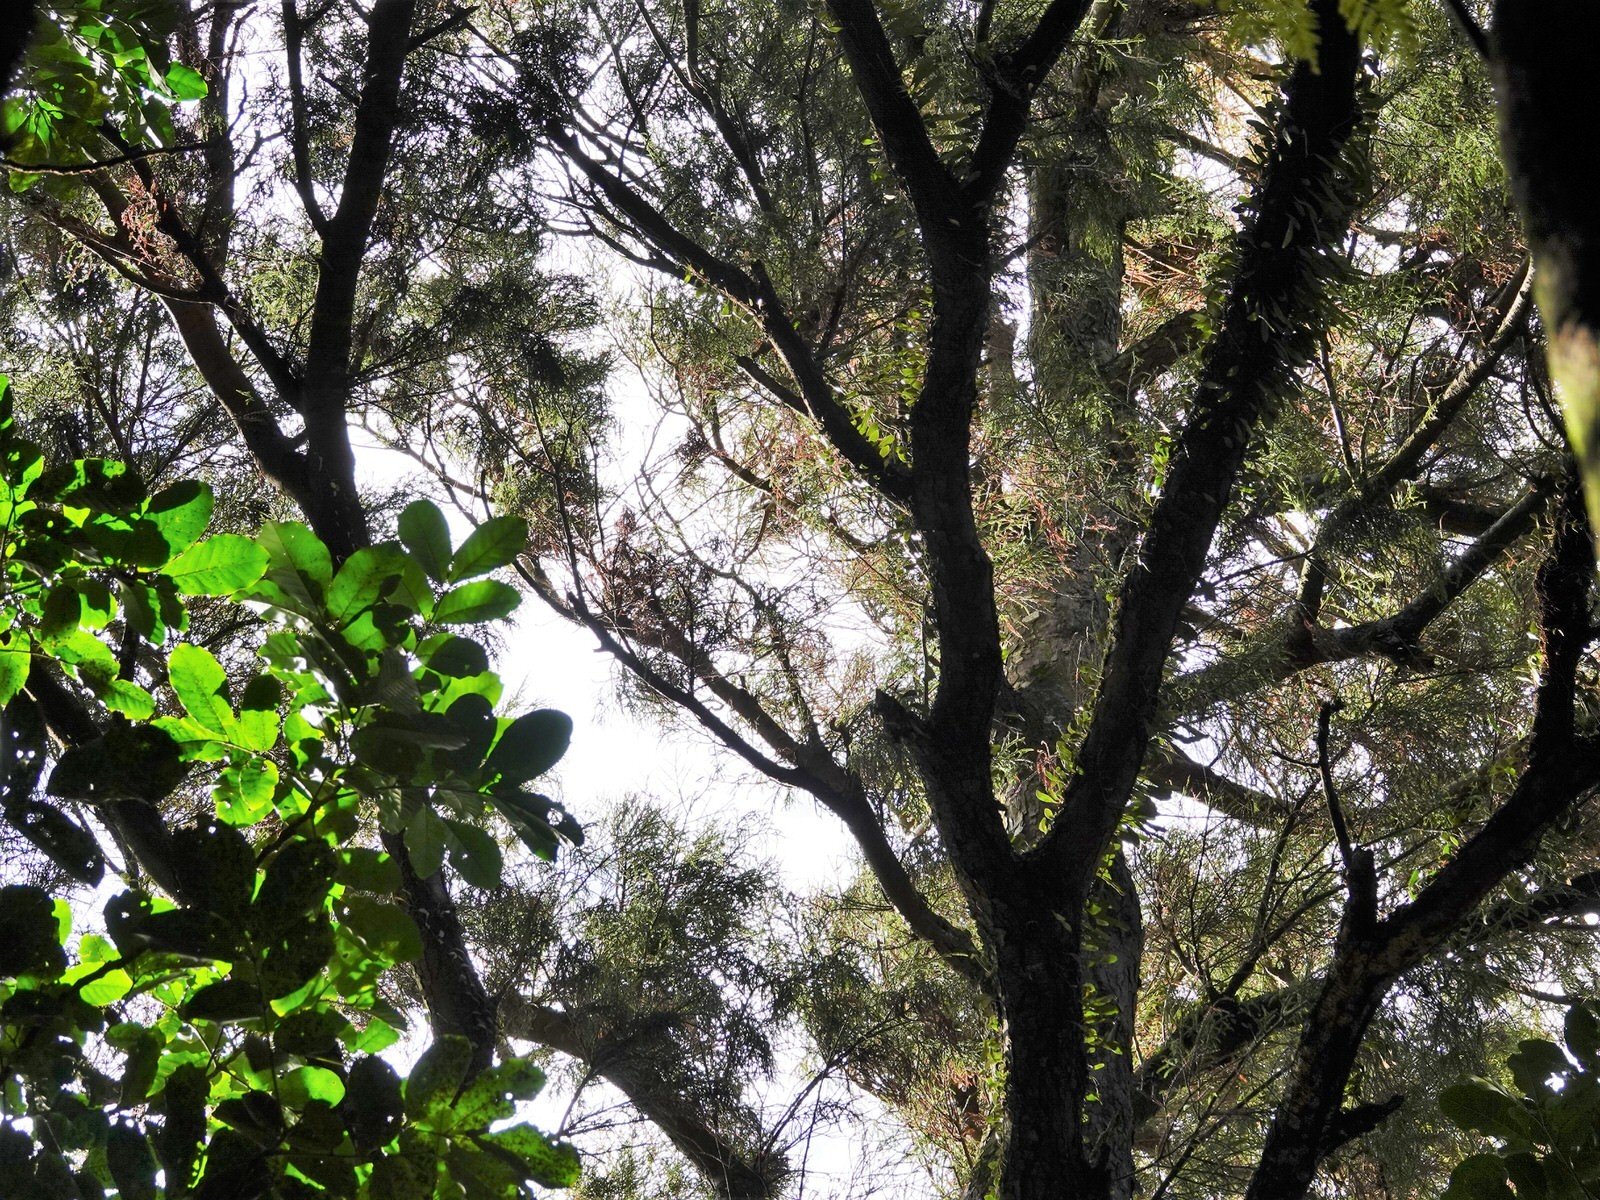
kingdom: Plantae
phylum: Tracheophyta
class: Pinopsida
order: Pinales
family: Podocarpaceae
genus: Dacrydium
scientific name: Dacrydium cupressinum
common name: Red pine
